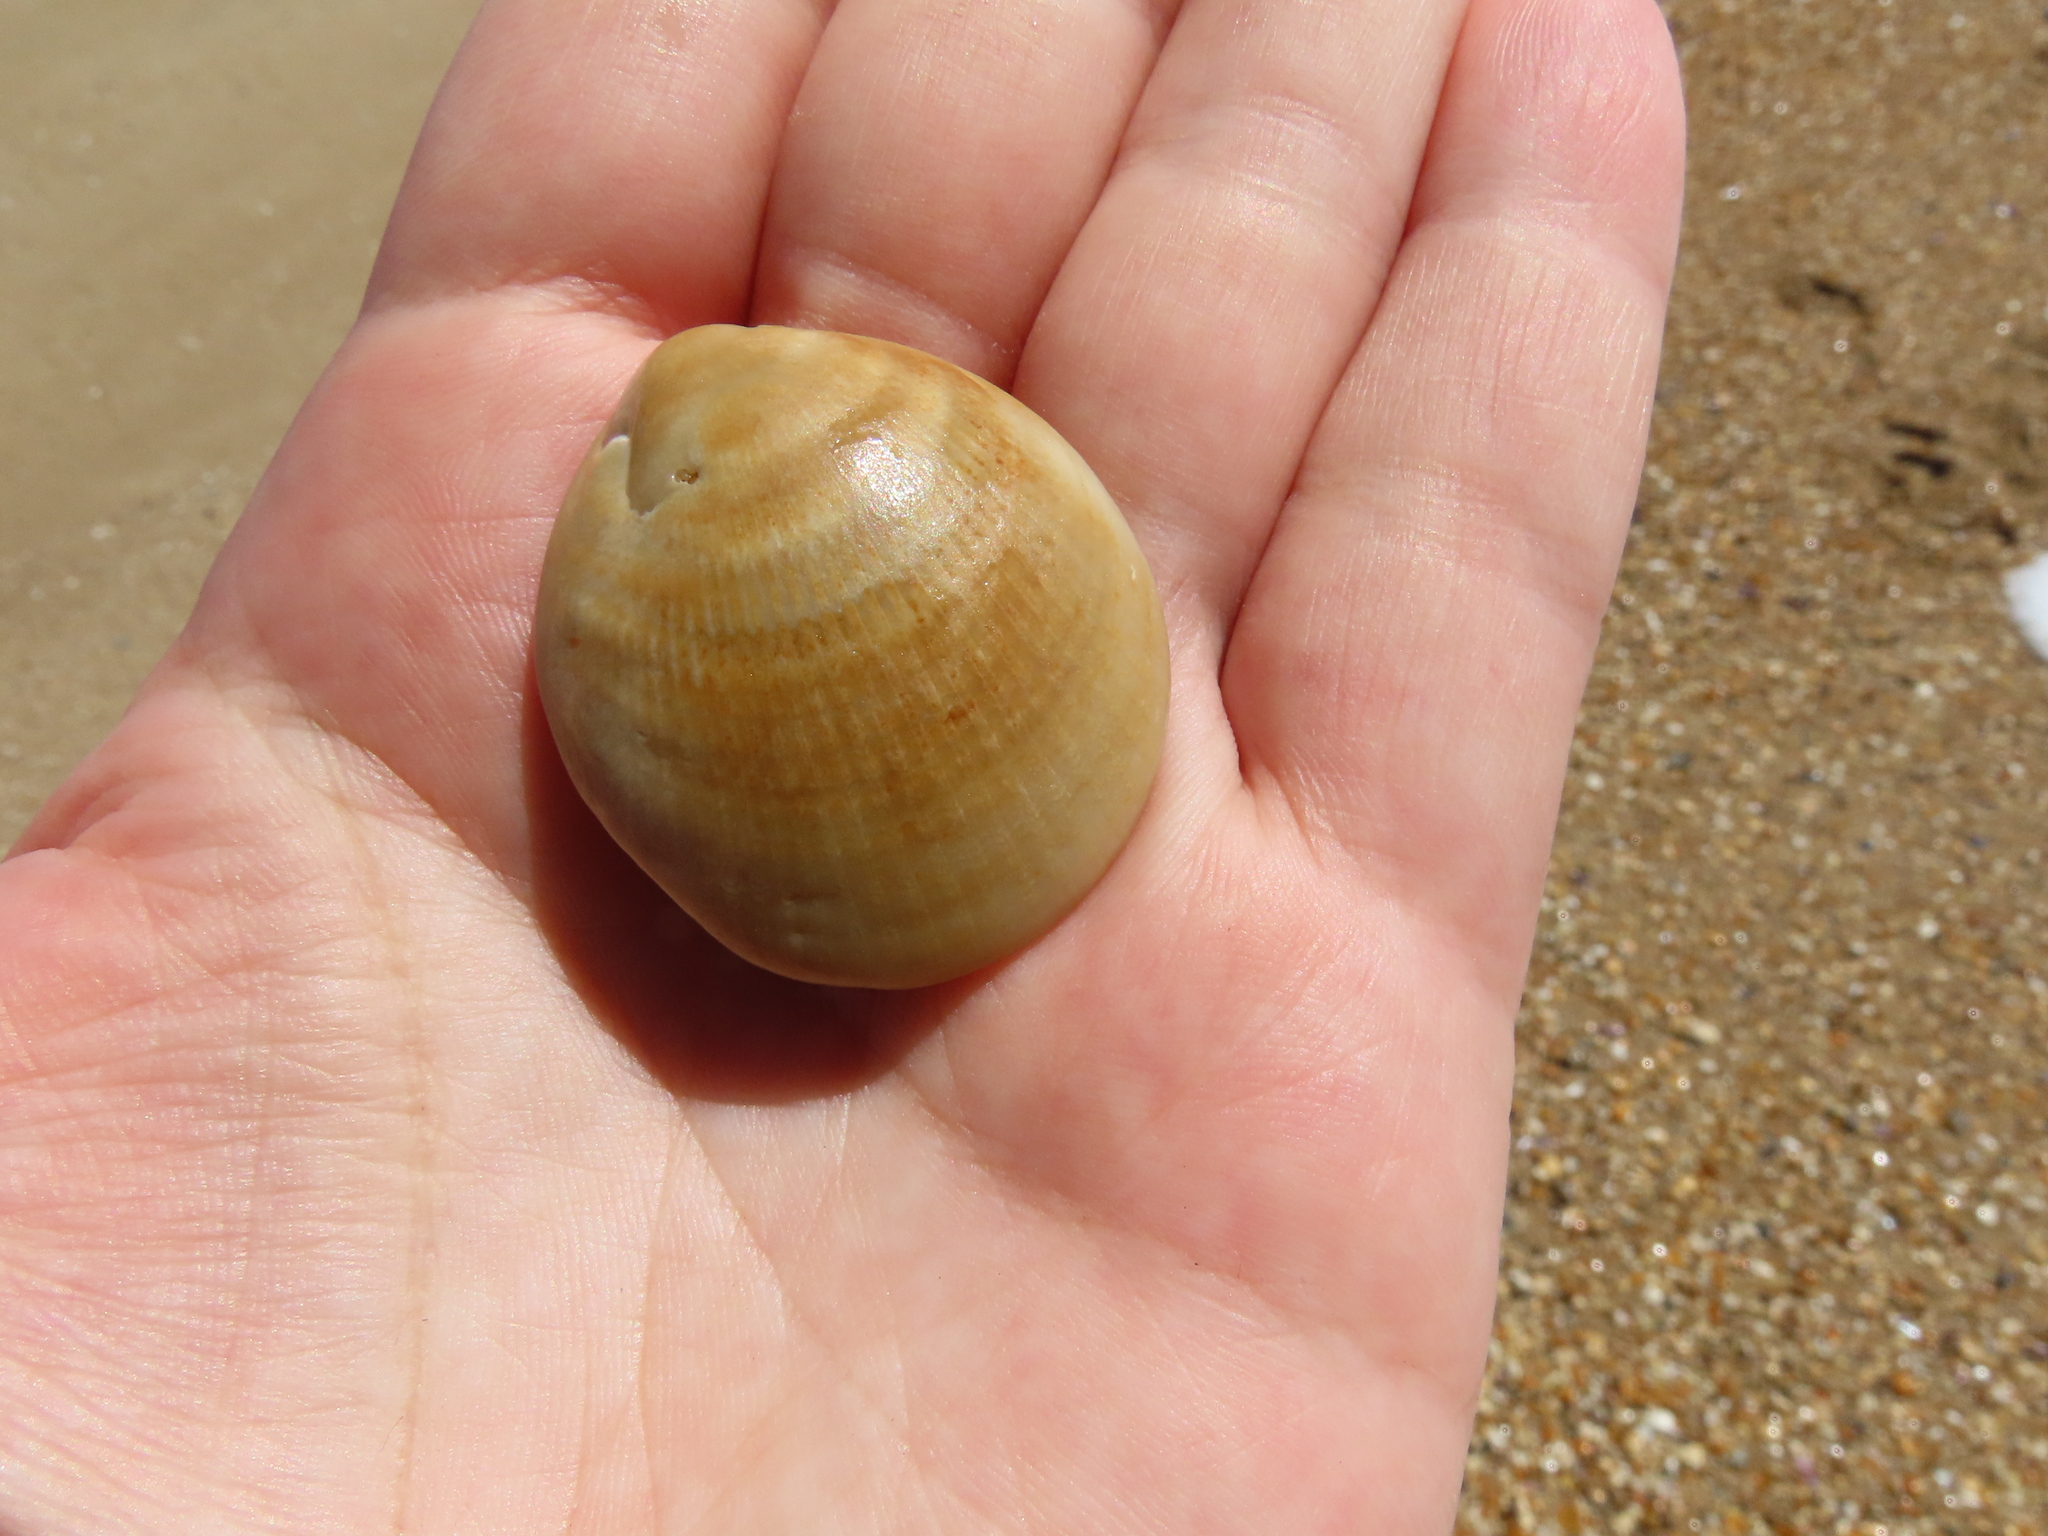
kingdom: Animalia
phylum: Mollusca
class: Bivalvia
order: Arcida
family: Glycymerididae
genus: Glycymeris
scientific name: Glycymeris longior
